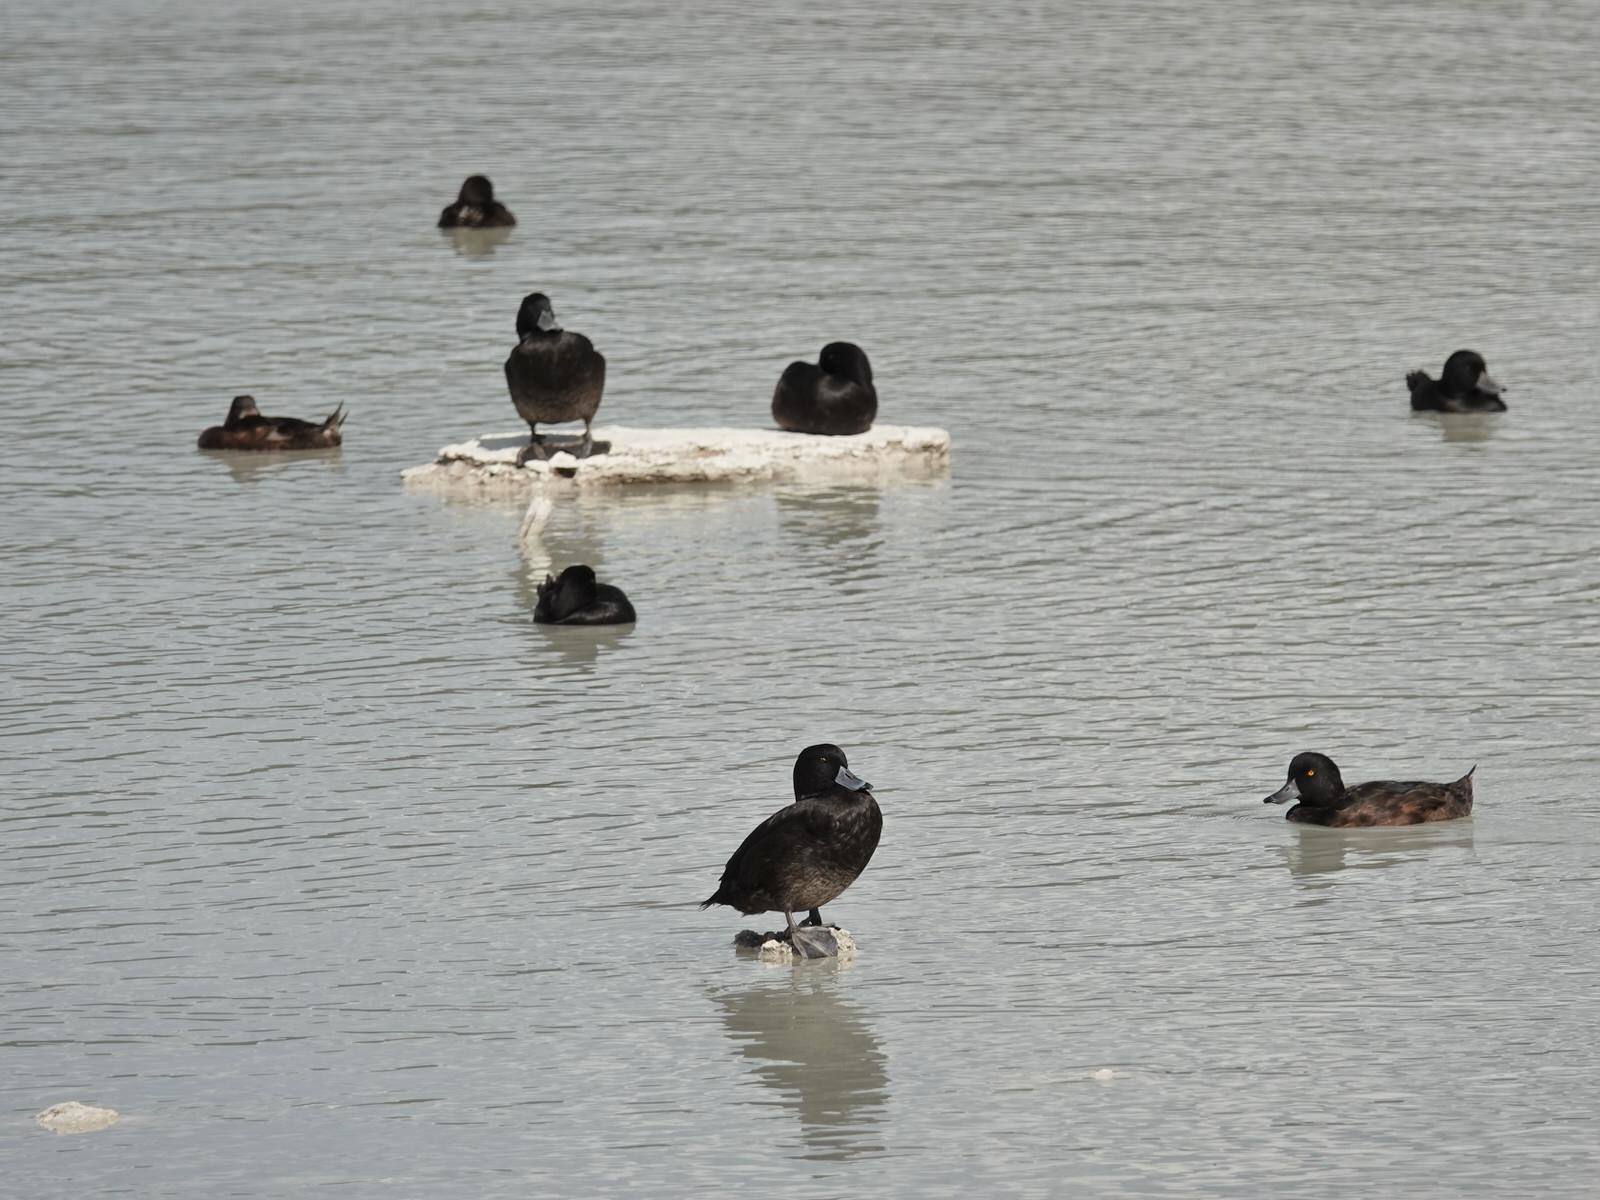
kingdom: Animalia
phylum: Chordata
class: Aves
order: Anseriformes
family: Anatidae
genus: Aythya
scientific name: Aythya novaeseelandiae
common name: New zealand scaup
